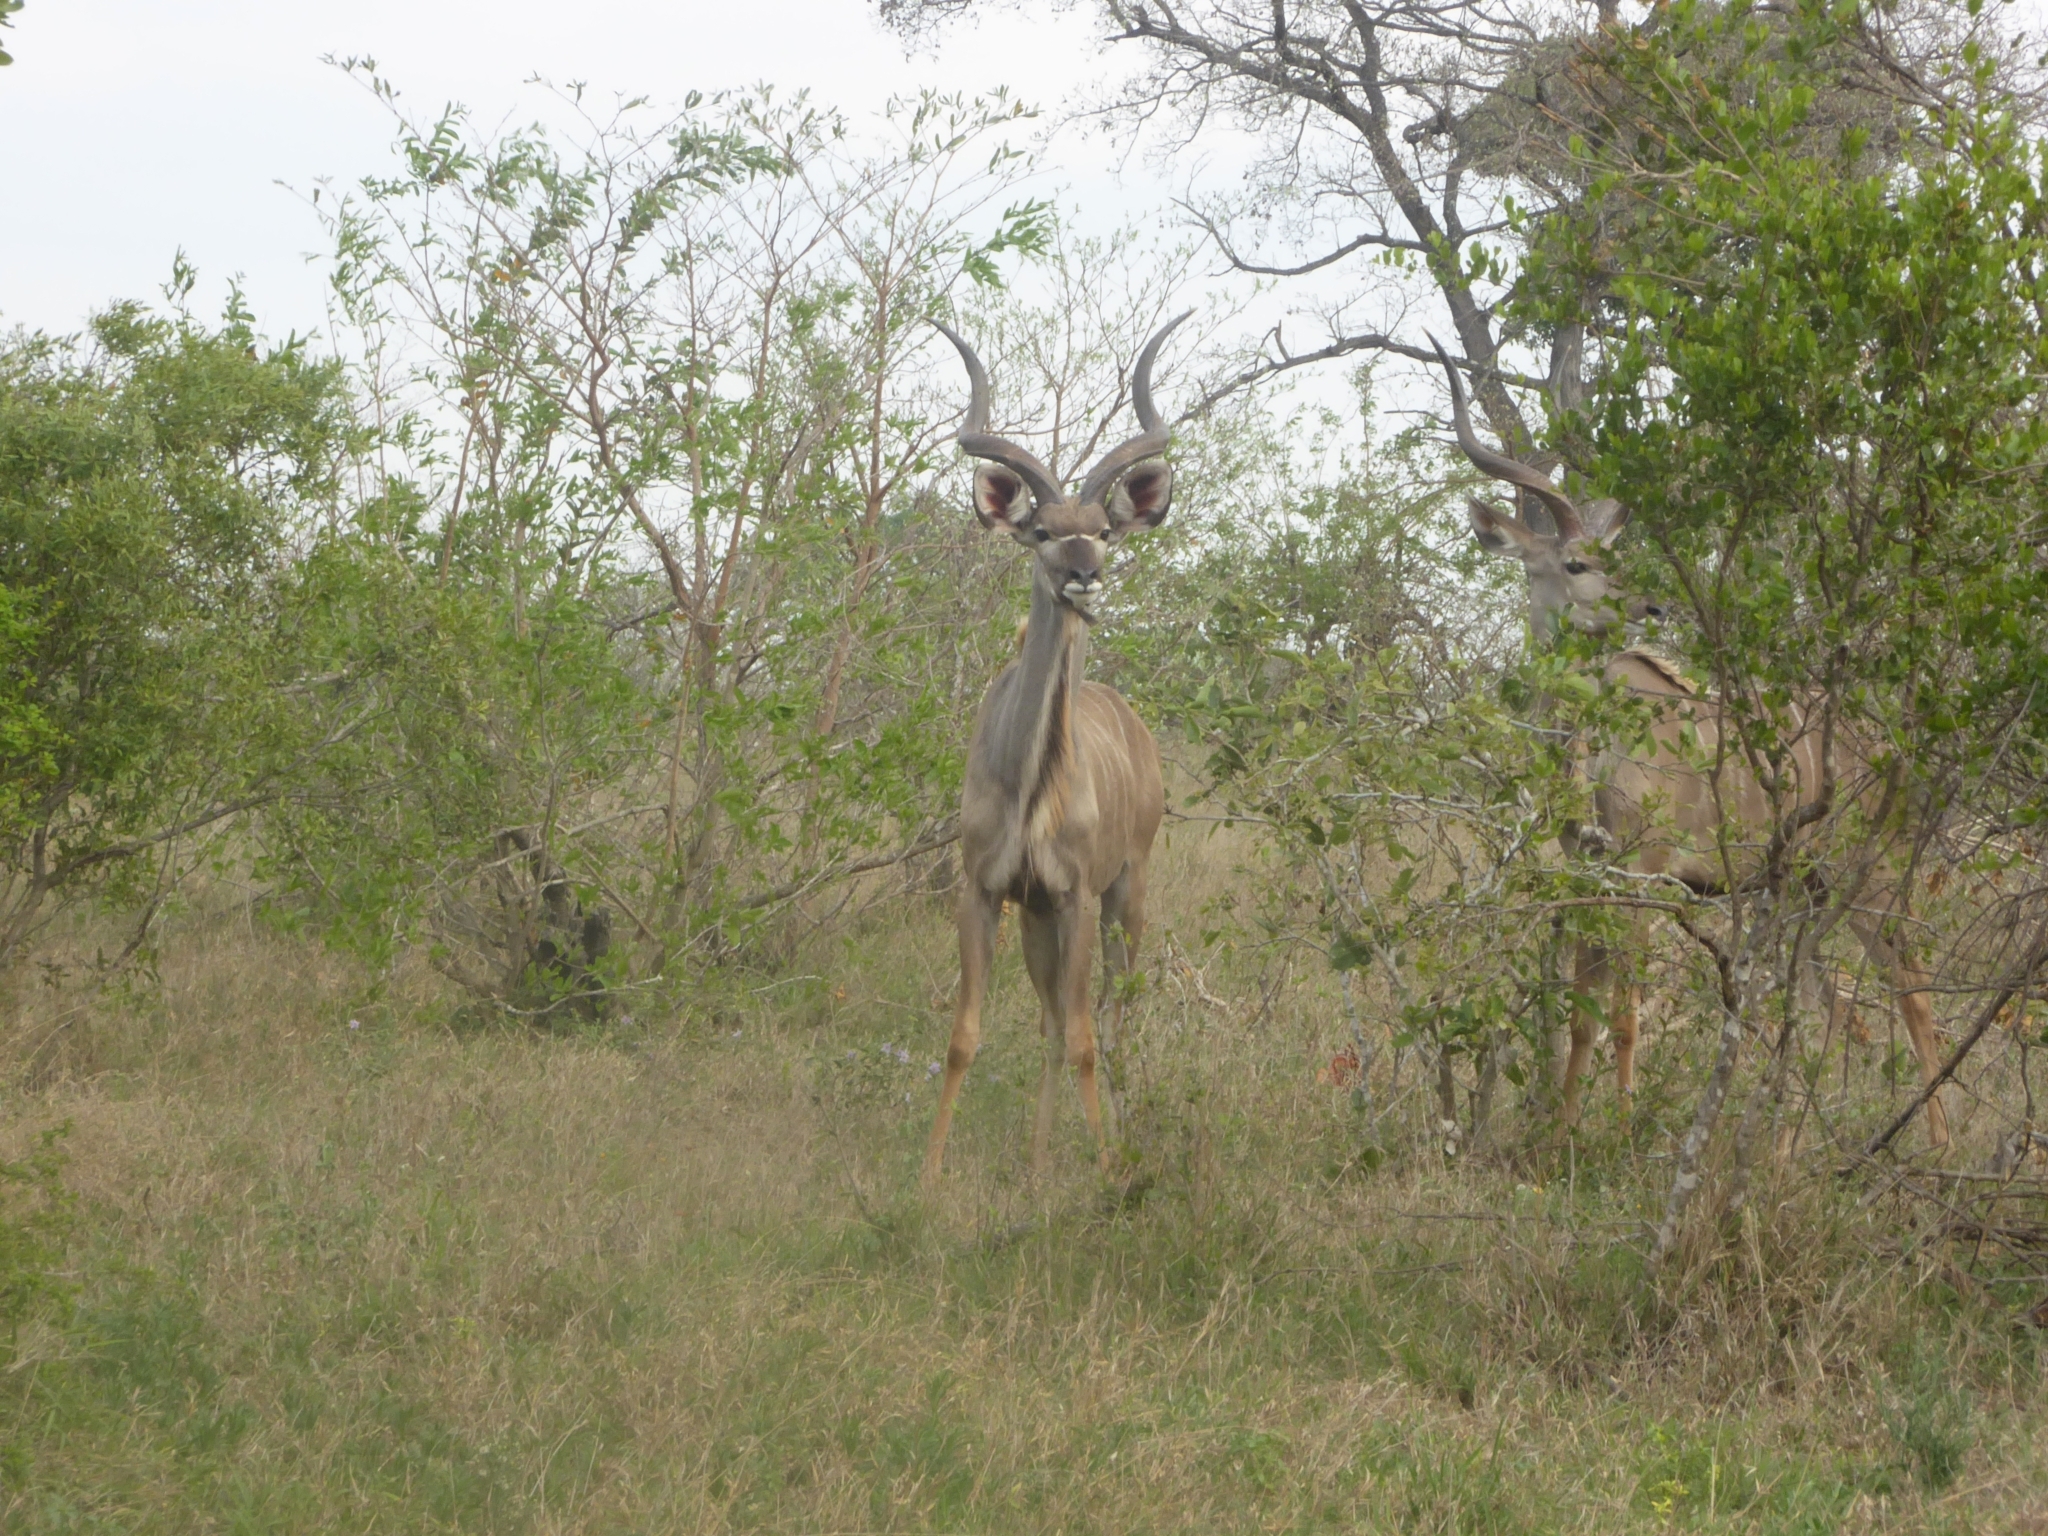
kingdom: Animalia
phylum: Chordata
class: Mammalia
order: Artiodactyla
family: Bovidae
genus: Tragelaphus
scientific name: Tragelaphus strepsiceros
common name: Greater kudu
